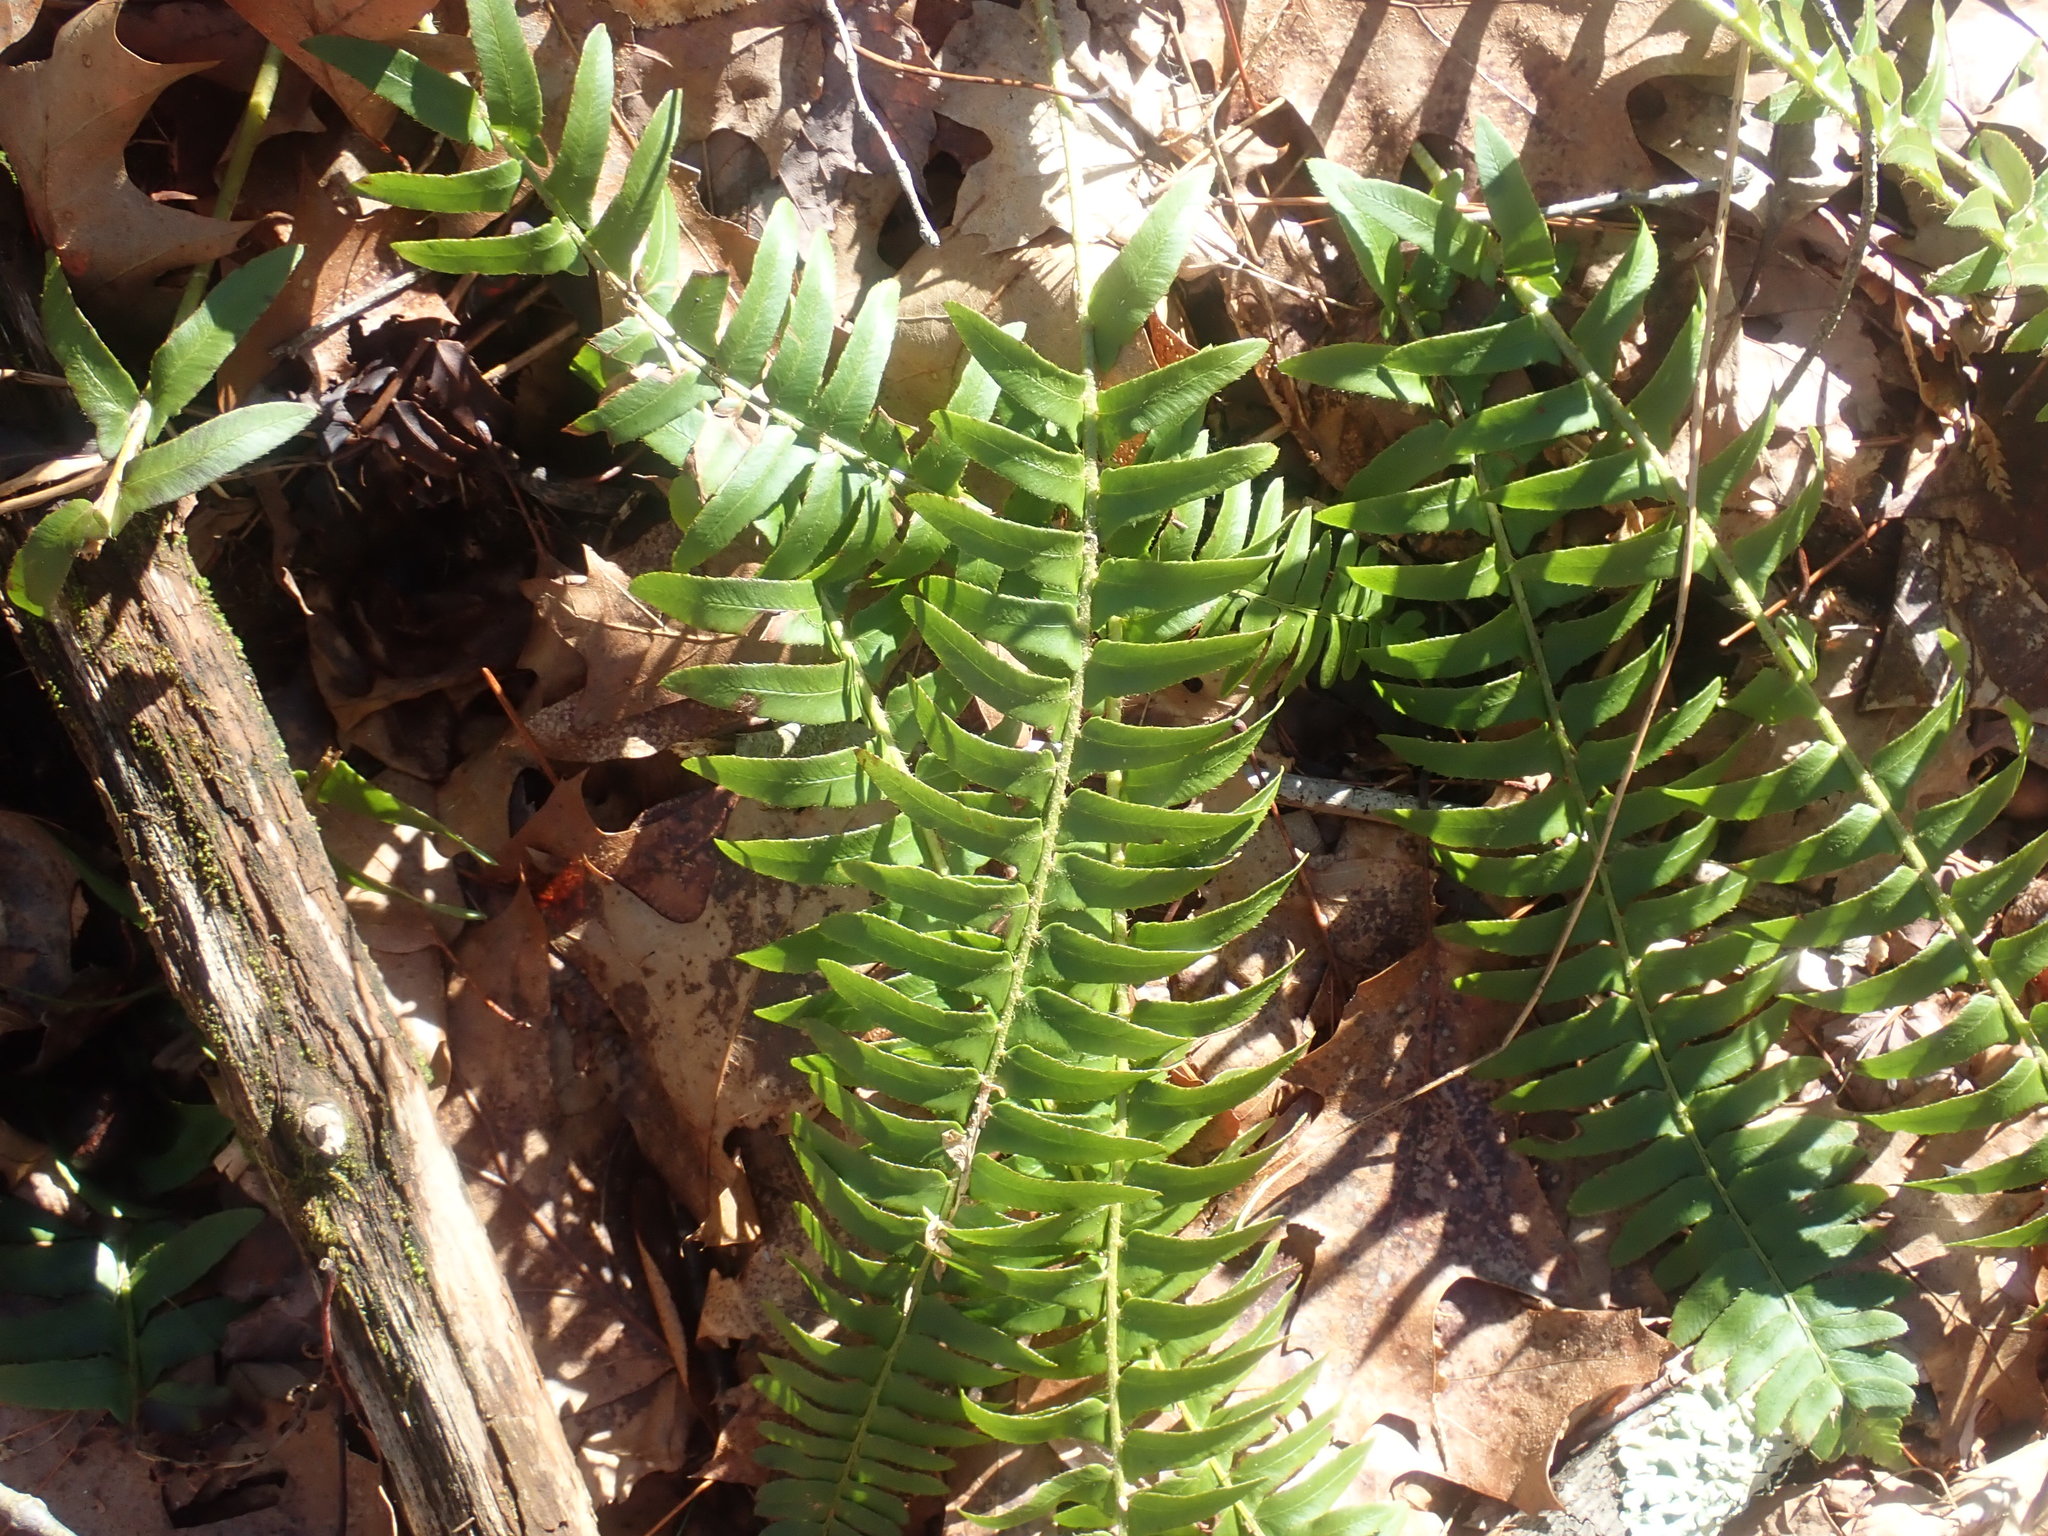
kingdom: Plantae
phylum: Tracheophyta
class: Polypodiopsida
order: Polypodiales
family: Dryopteridaceae
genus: Polystichum
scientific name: Polystichum acrostichoides
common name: Christmas fern
